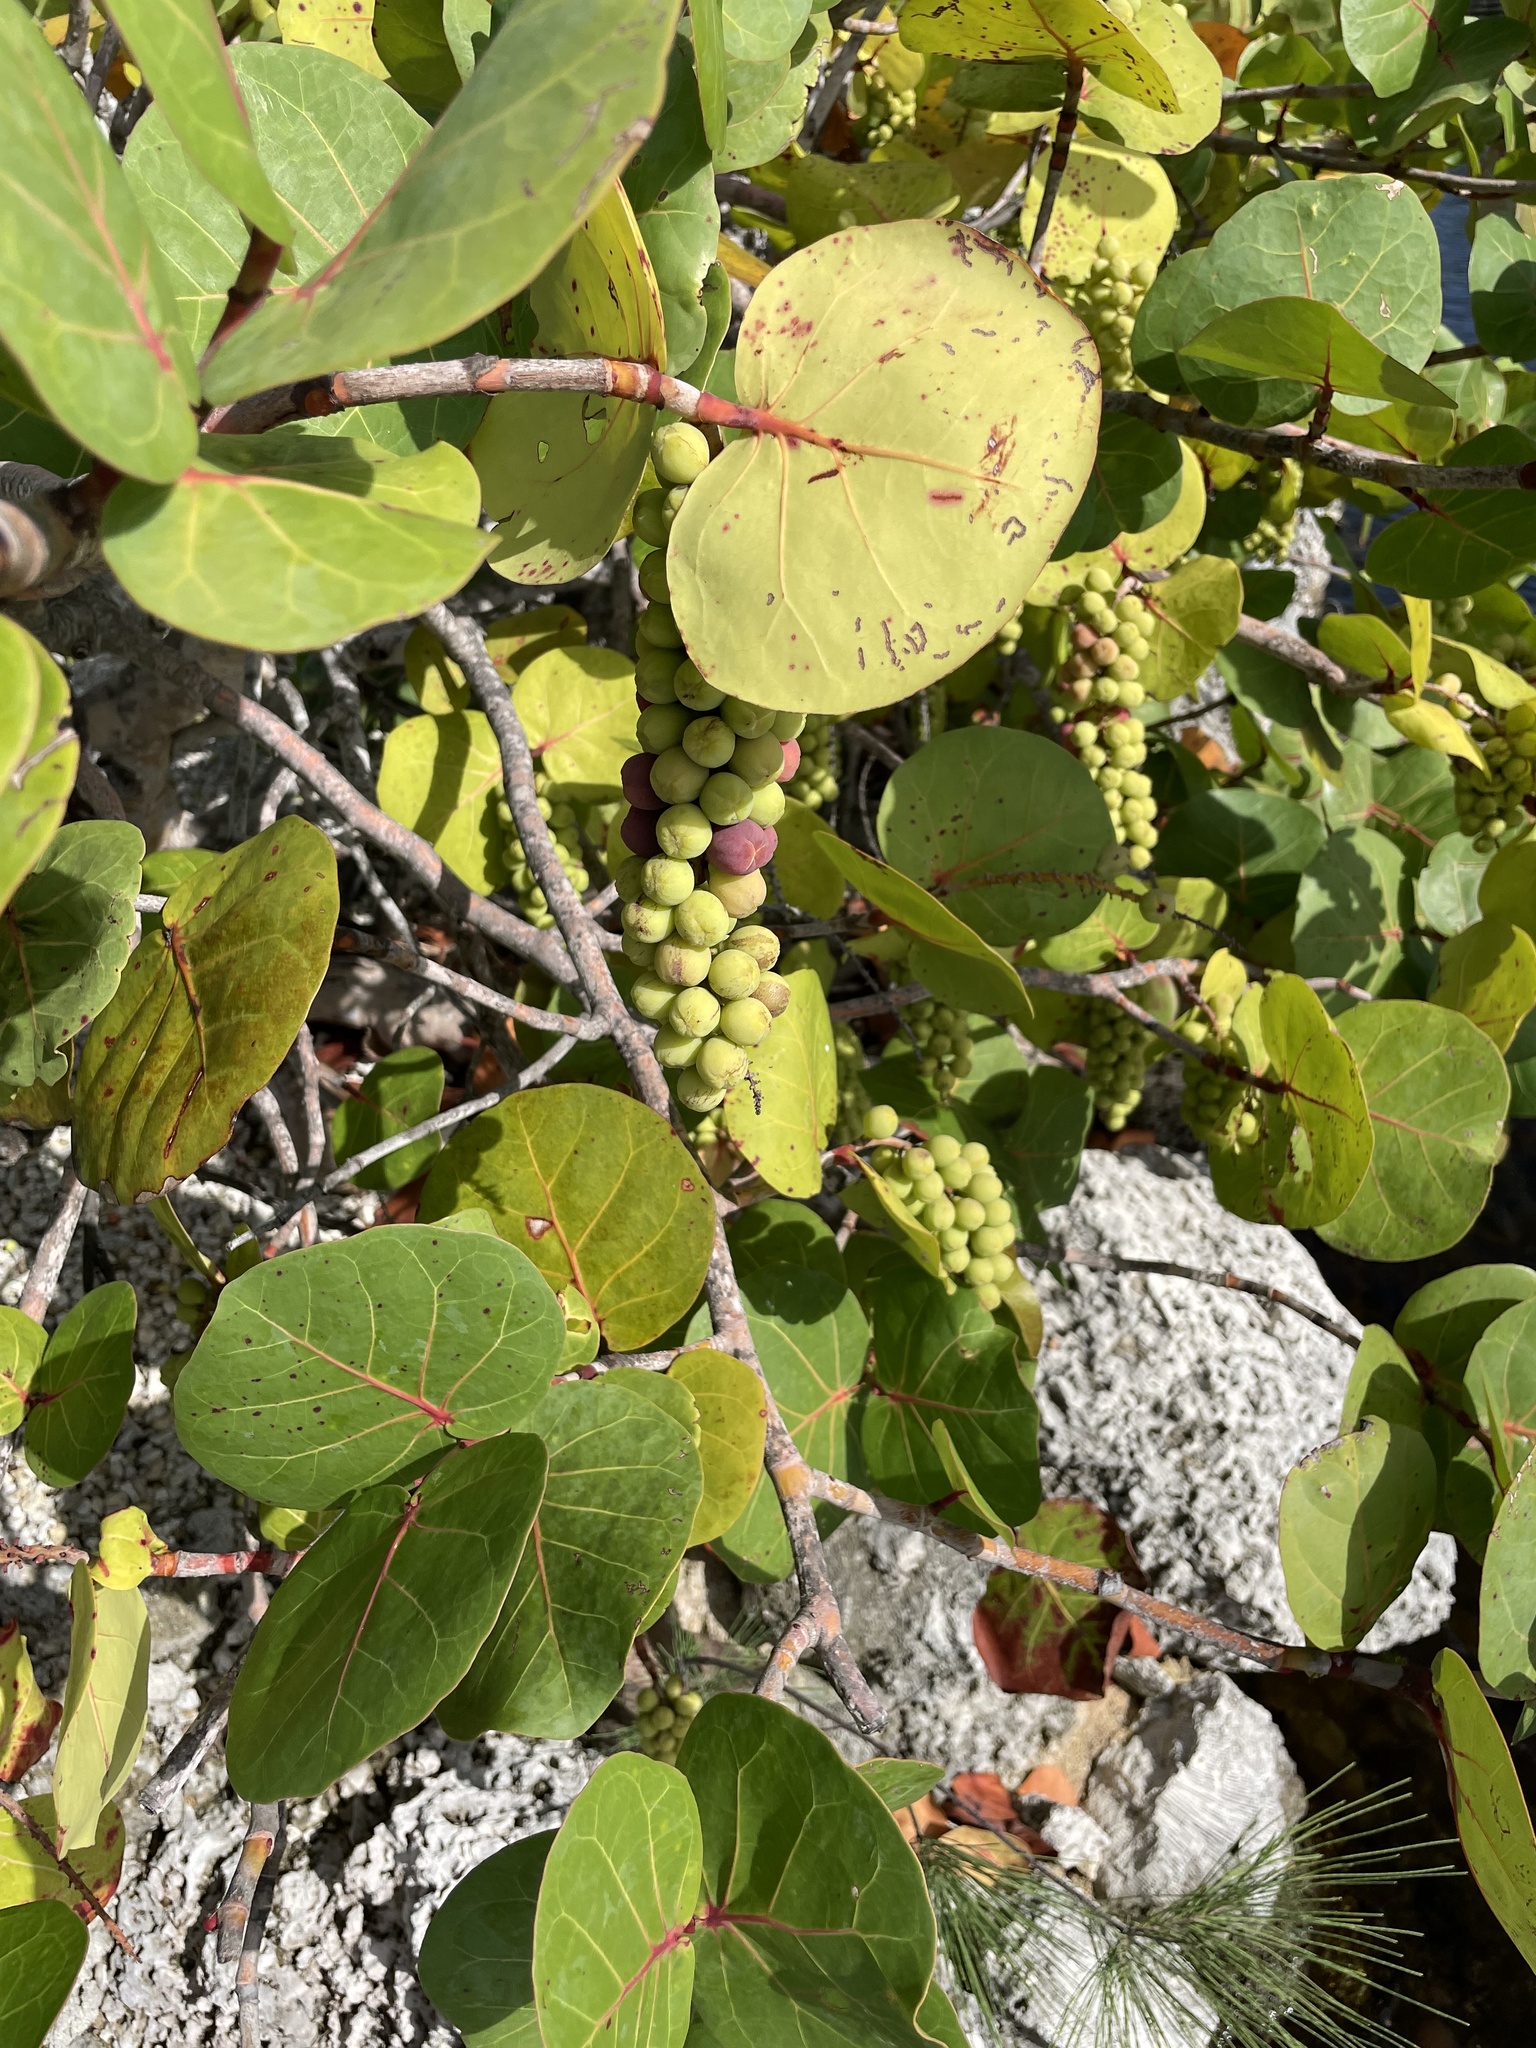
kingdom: Plantae
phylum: Tracheophyta
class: Magnoliopsida
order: Caryophyllales
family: Polygonaceae
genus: Coccoloba
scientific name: Coccoloba uvifera
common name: Seagrape
